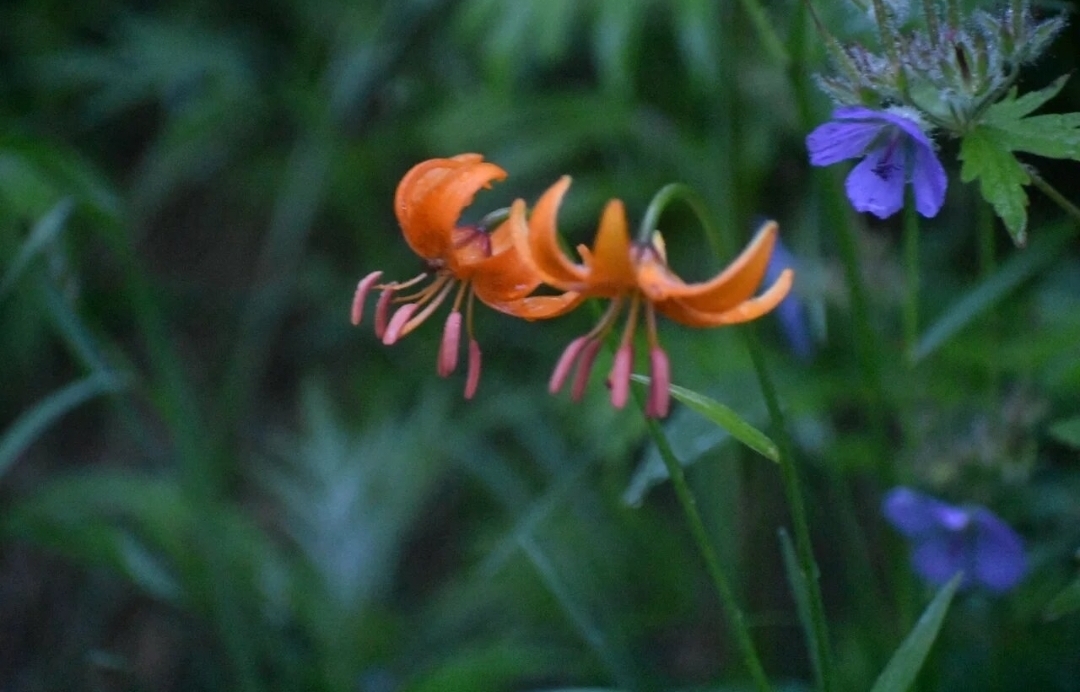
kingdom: Plantae
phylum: Tracheophyta
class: Liliopsida
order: Liliales
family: Liliaceae
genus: Lilium
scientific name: Lilium debile
